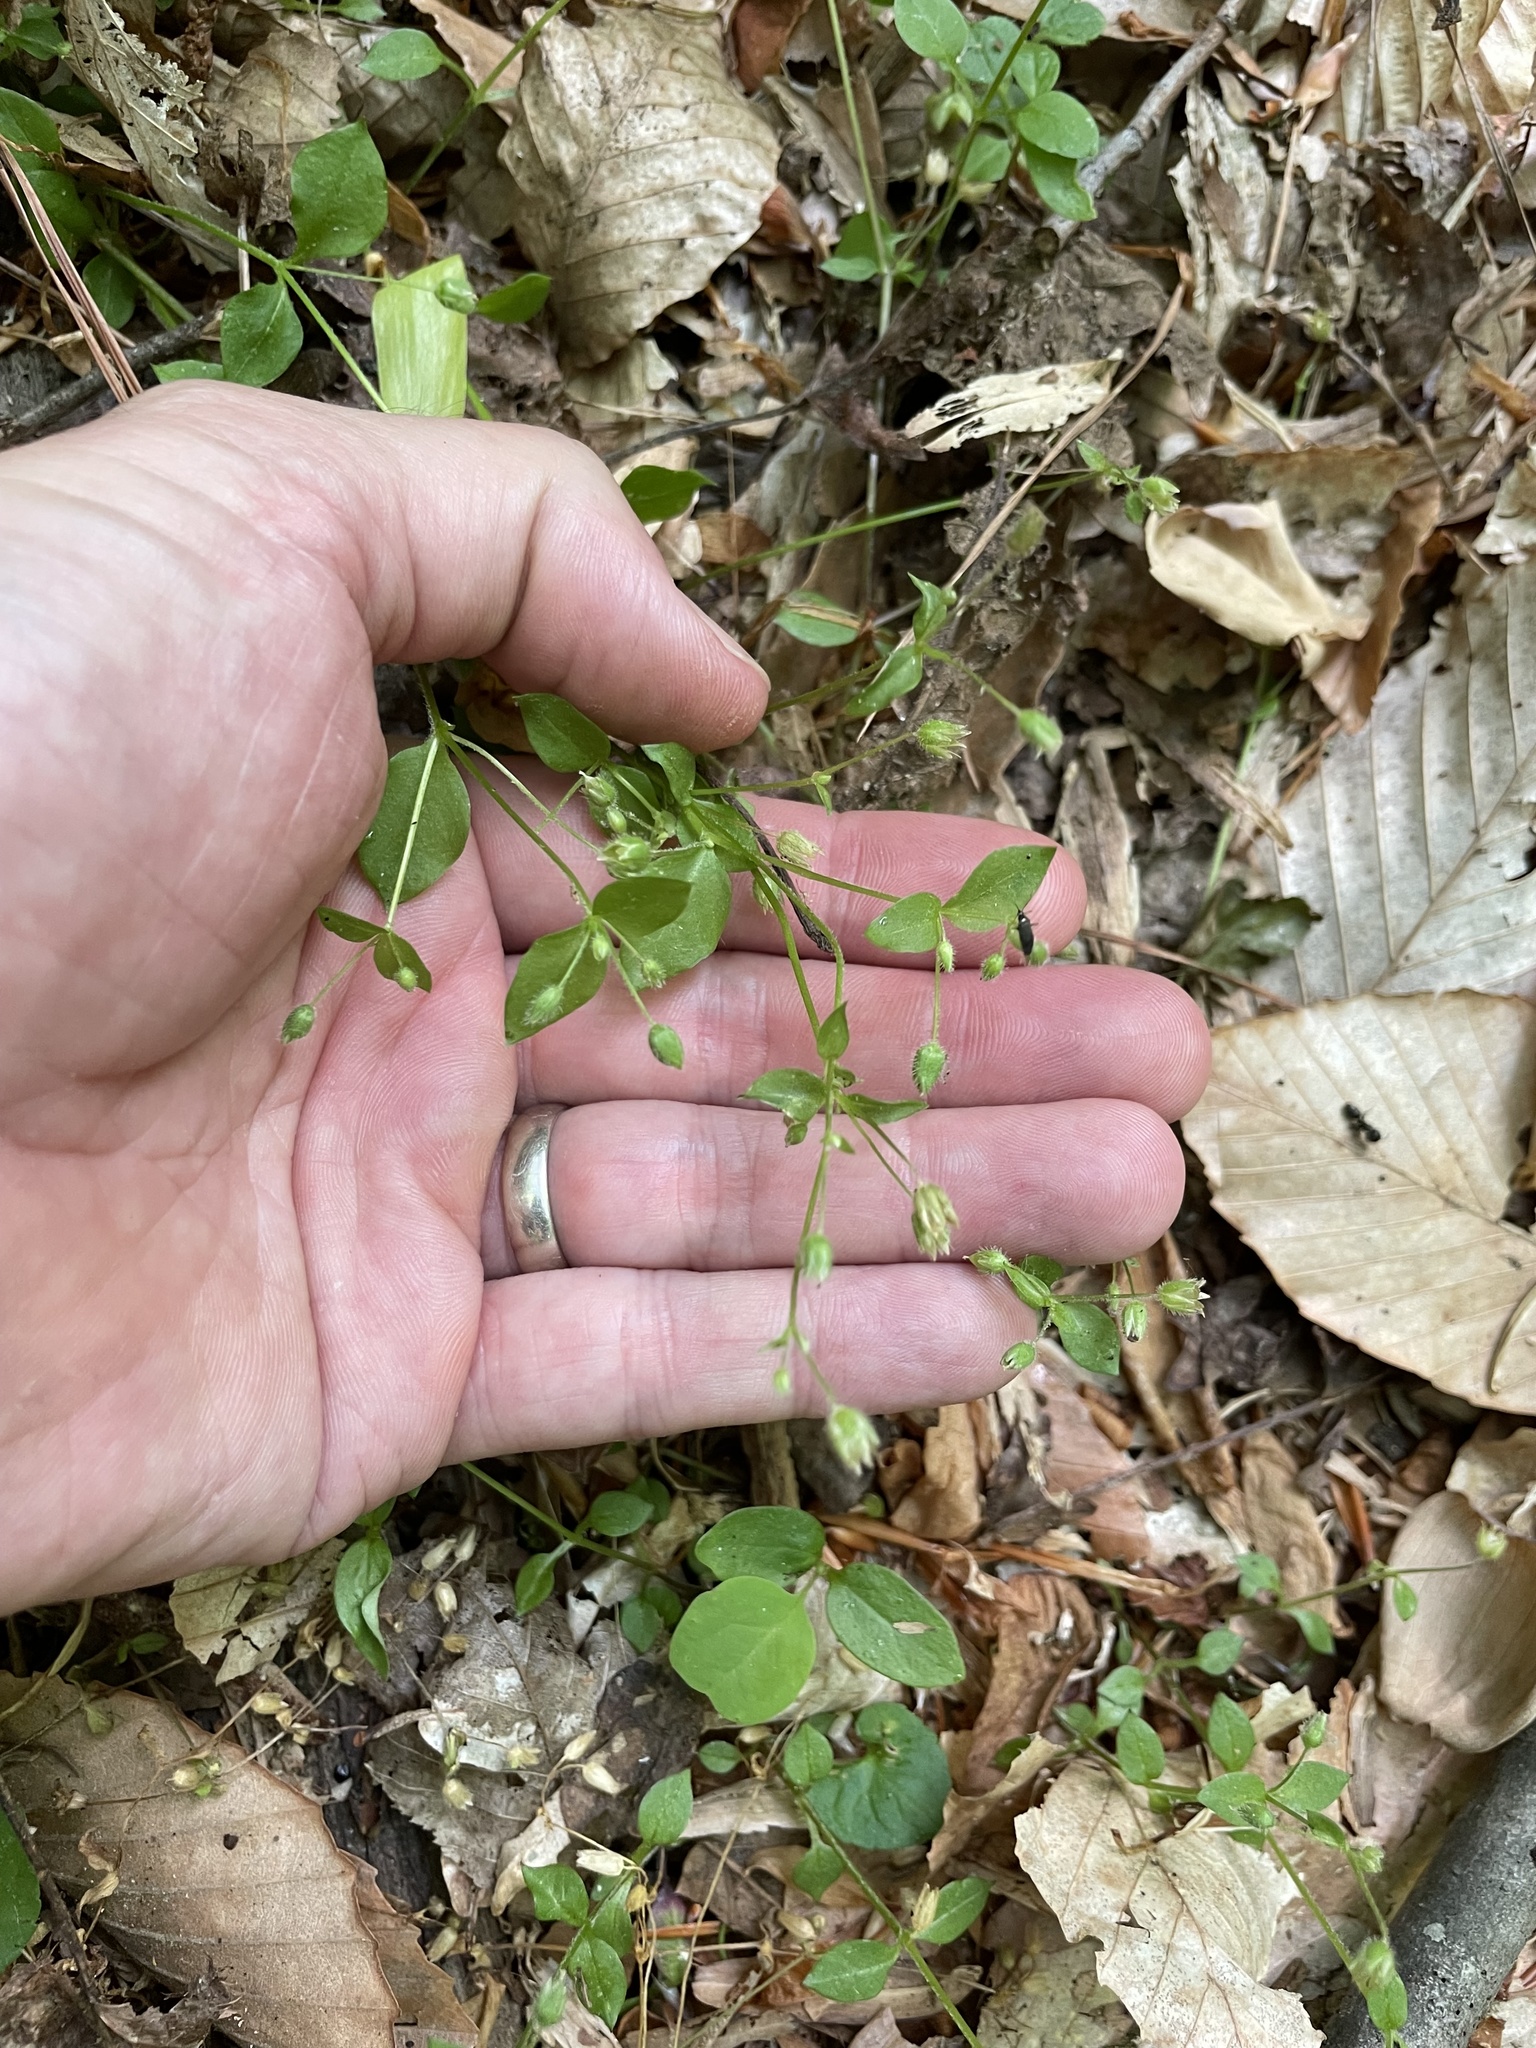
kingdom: Plantae
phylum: Tracheophyta
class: Magnoliopsida
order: Caryophyllales
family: Caryophyllaceae
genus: Stellaria
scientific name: Stellaria media
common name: Common chickweed
